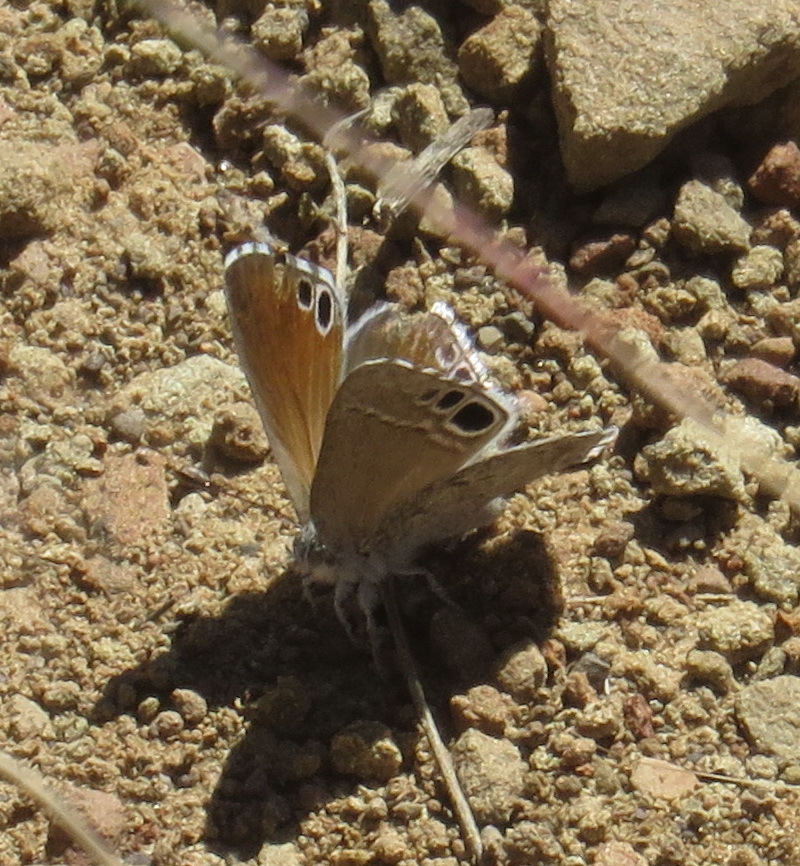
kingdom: Animalia
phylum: Arthropoda
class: Insecta
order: Lepidoptera
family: Lycaenidae
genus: Leptomyrina
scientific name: Leptomyrina lara
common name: Cape black-eye
